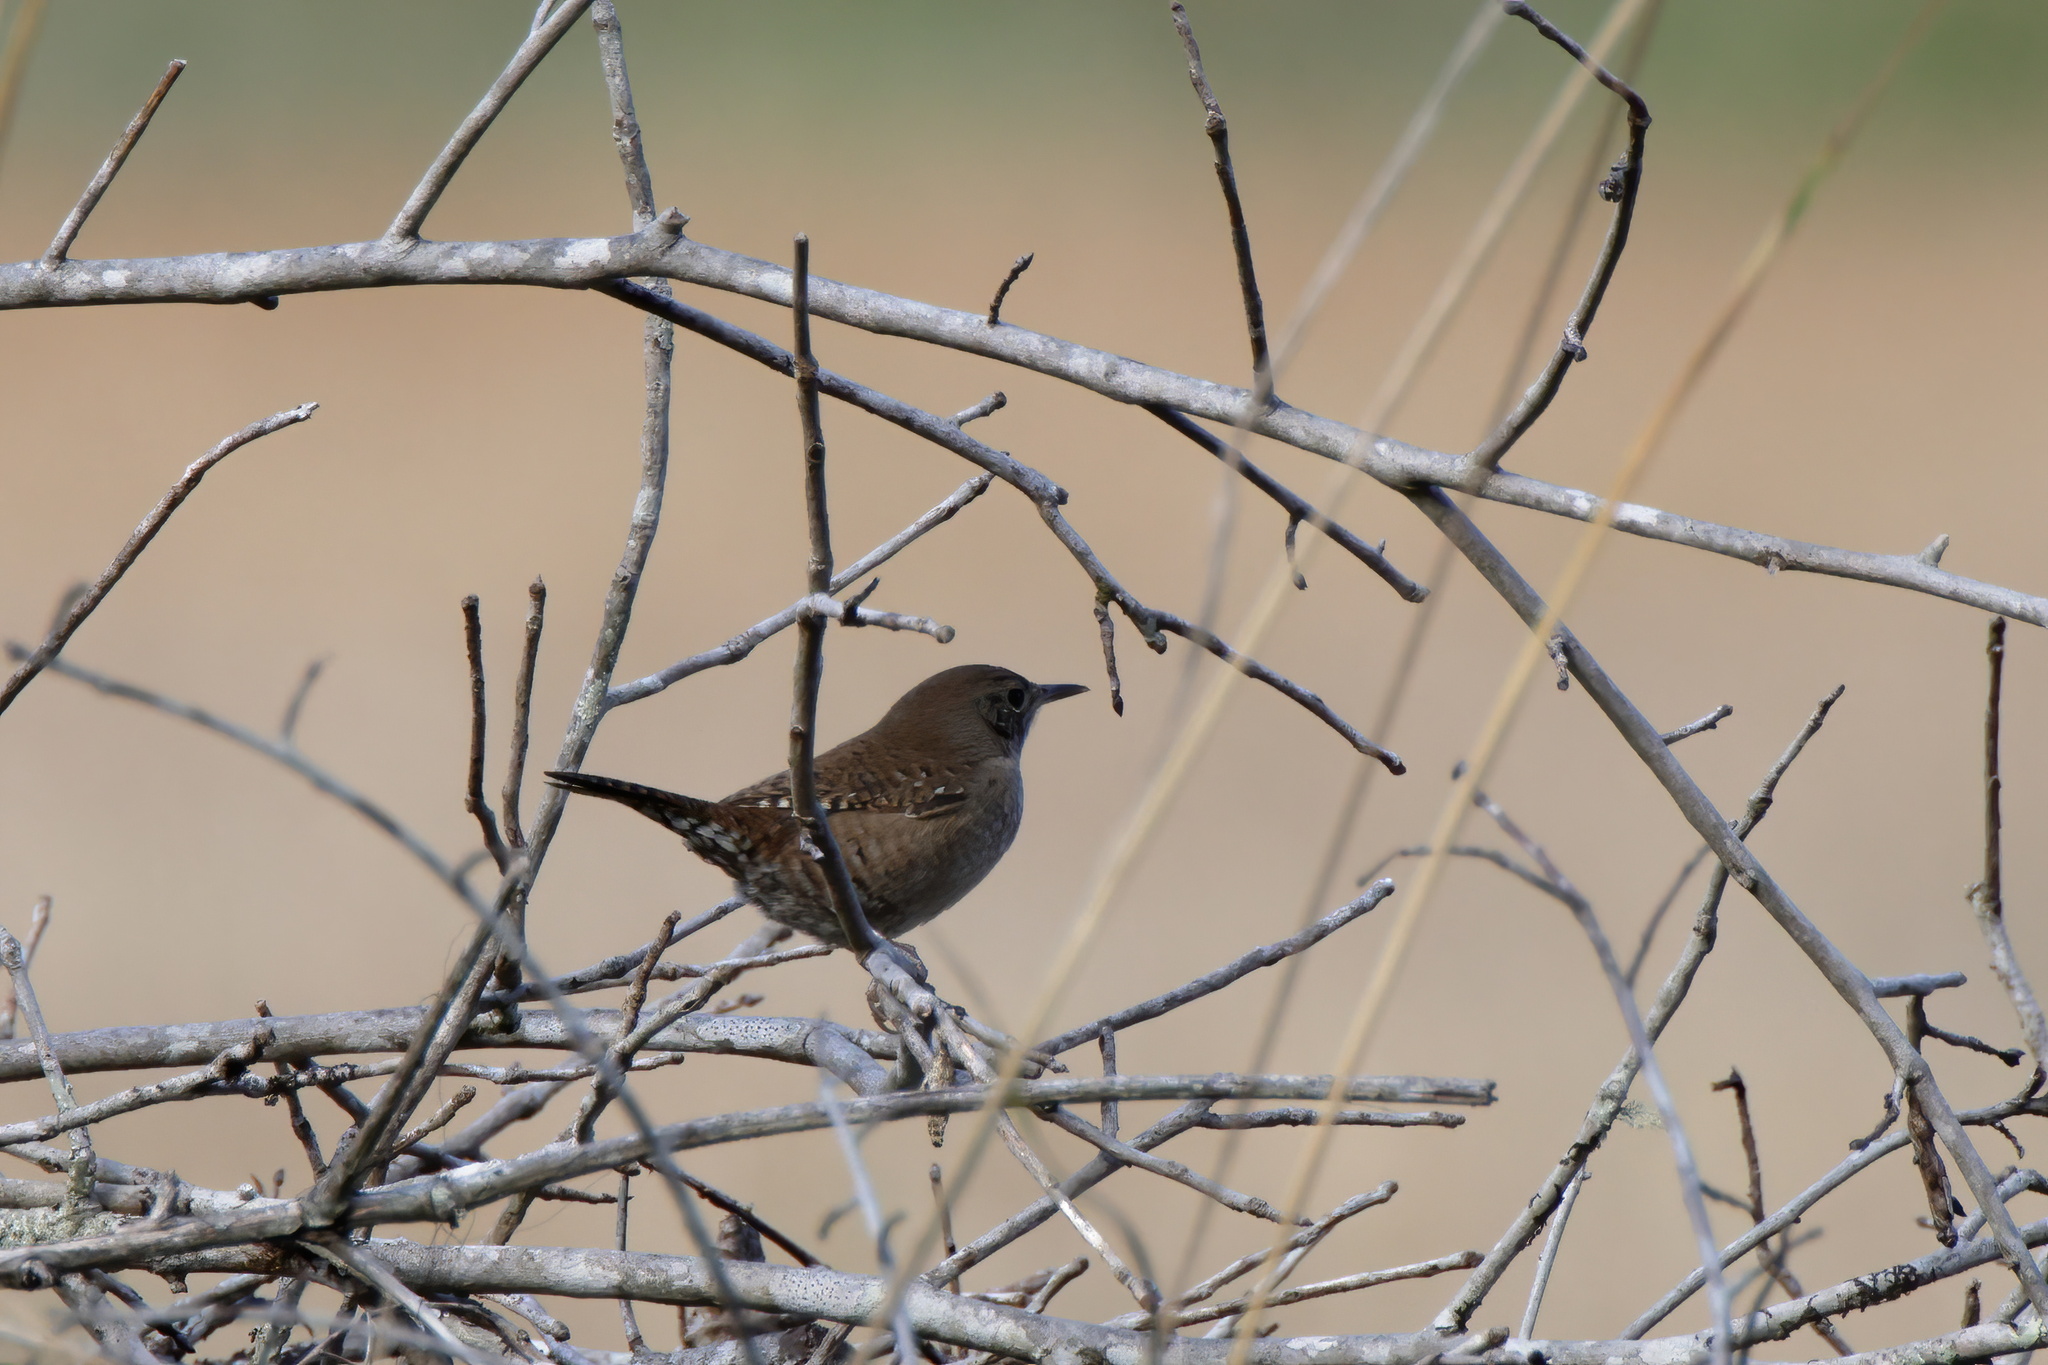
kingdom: Animalia
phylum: Chordata
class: Aves
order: Passeriformes
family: Troglodytidae
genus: Troglodytes
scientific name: Troglodytes aedon
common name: House wren
